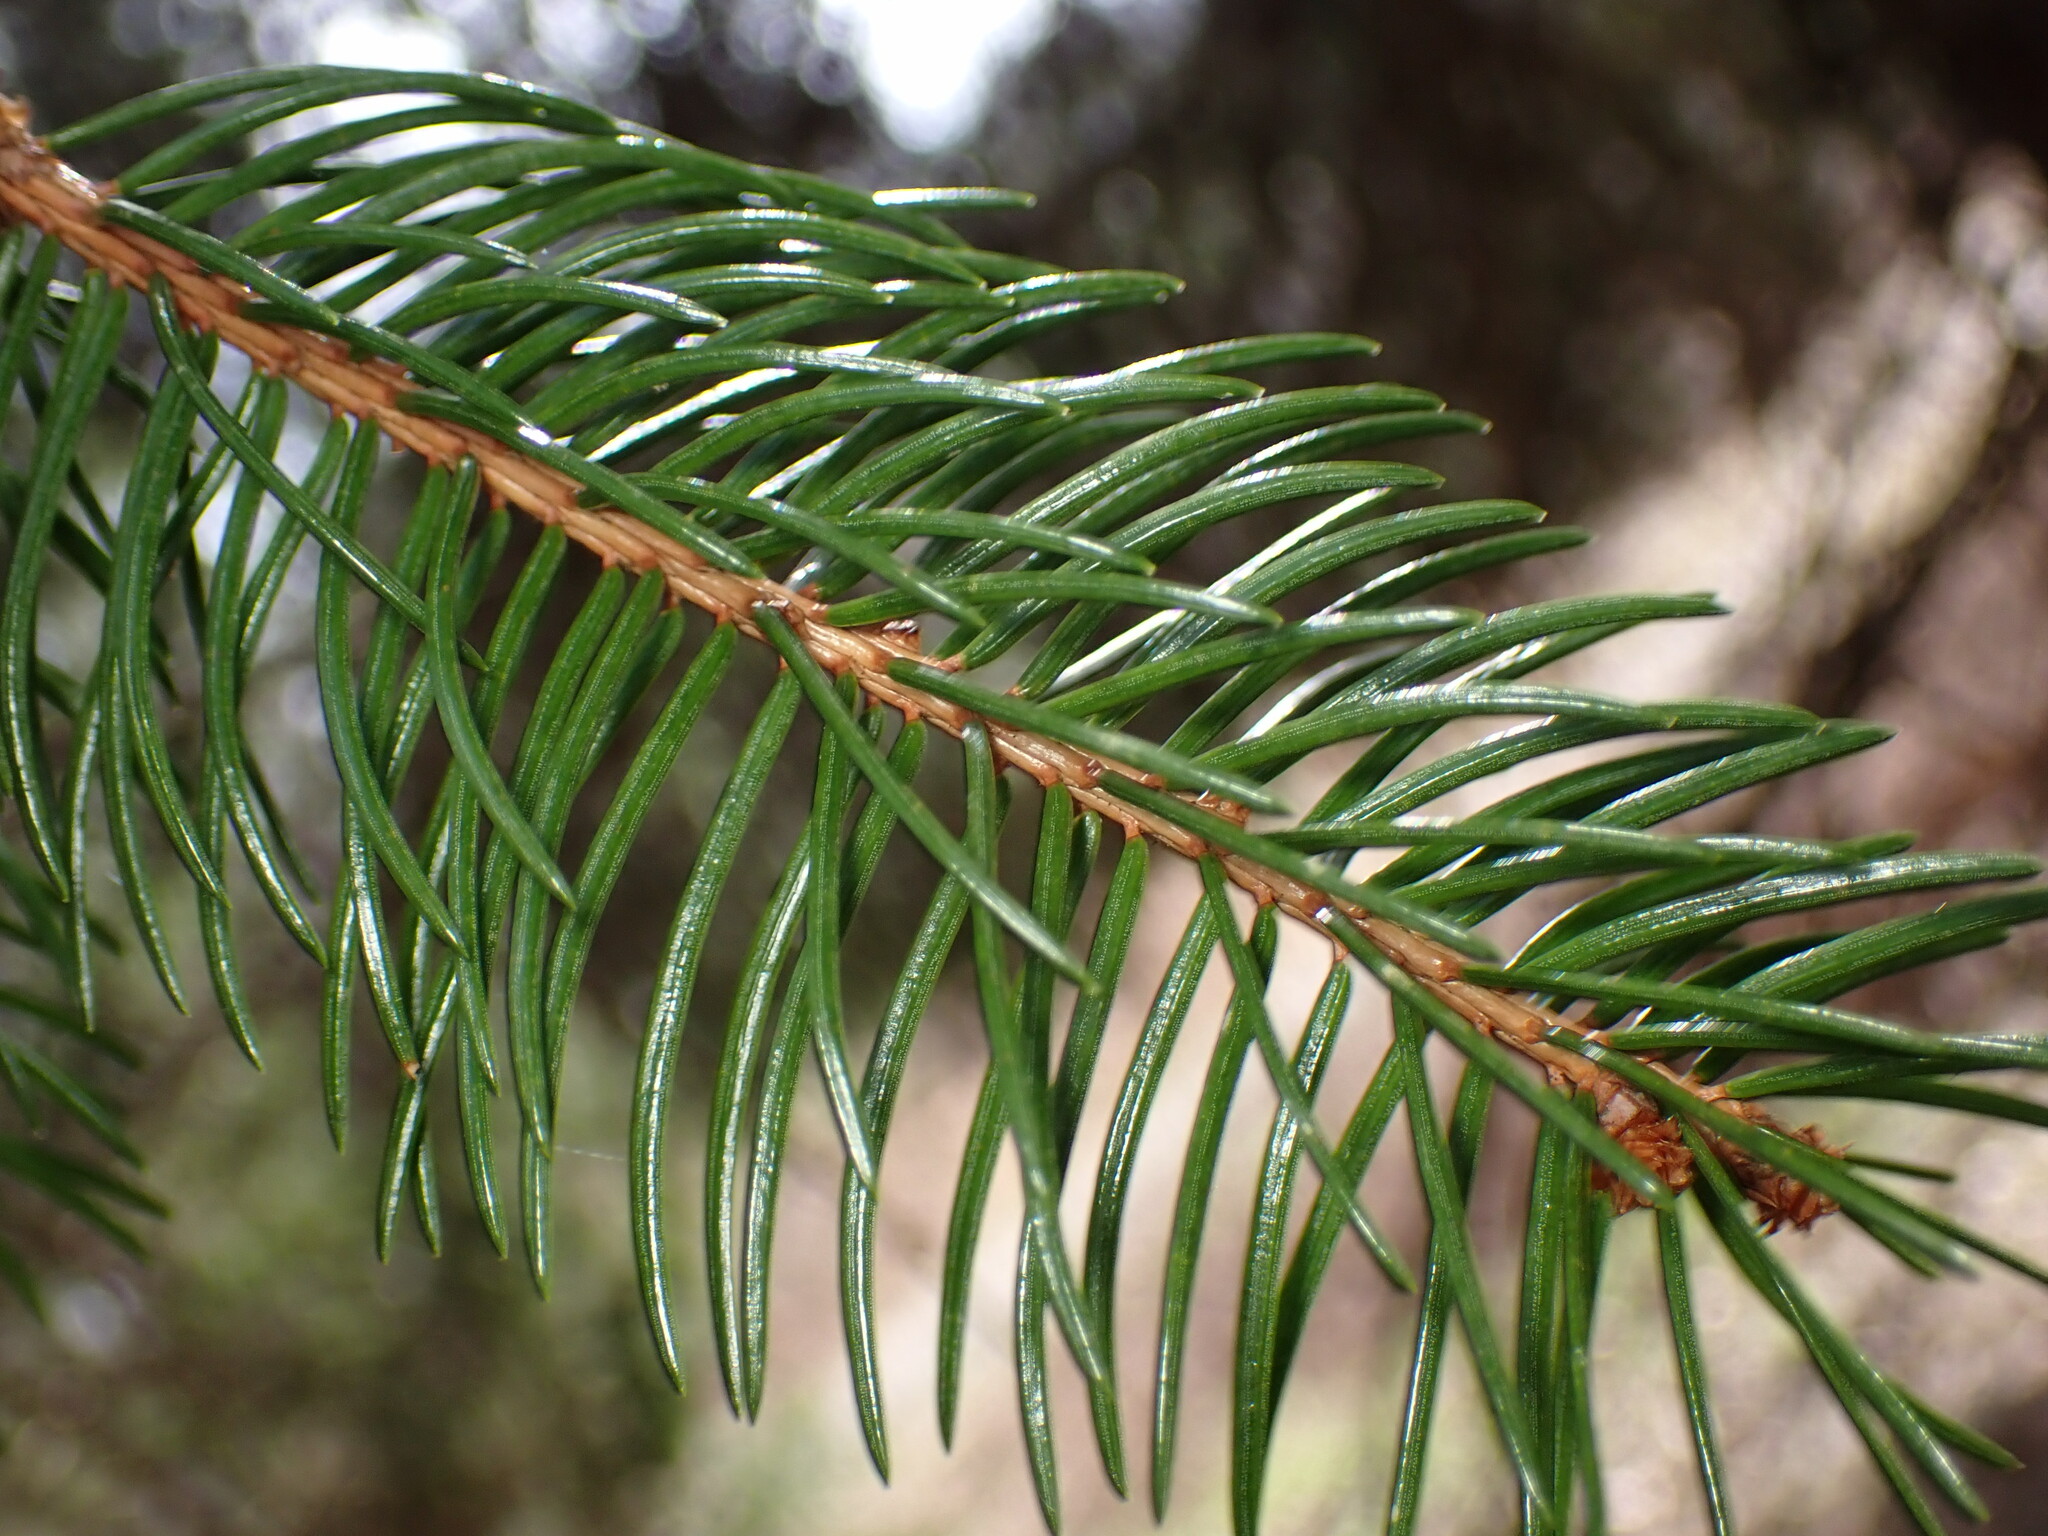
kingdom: Plantae
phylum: Tracheophyta
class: Pinopsida
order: Pinales
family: Pinaceae
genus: Picea
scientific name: Picea abies
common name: Norway spruce
